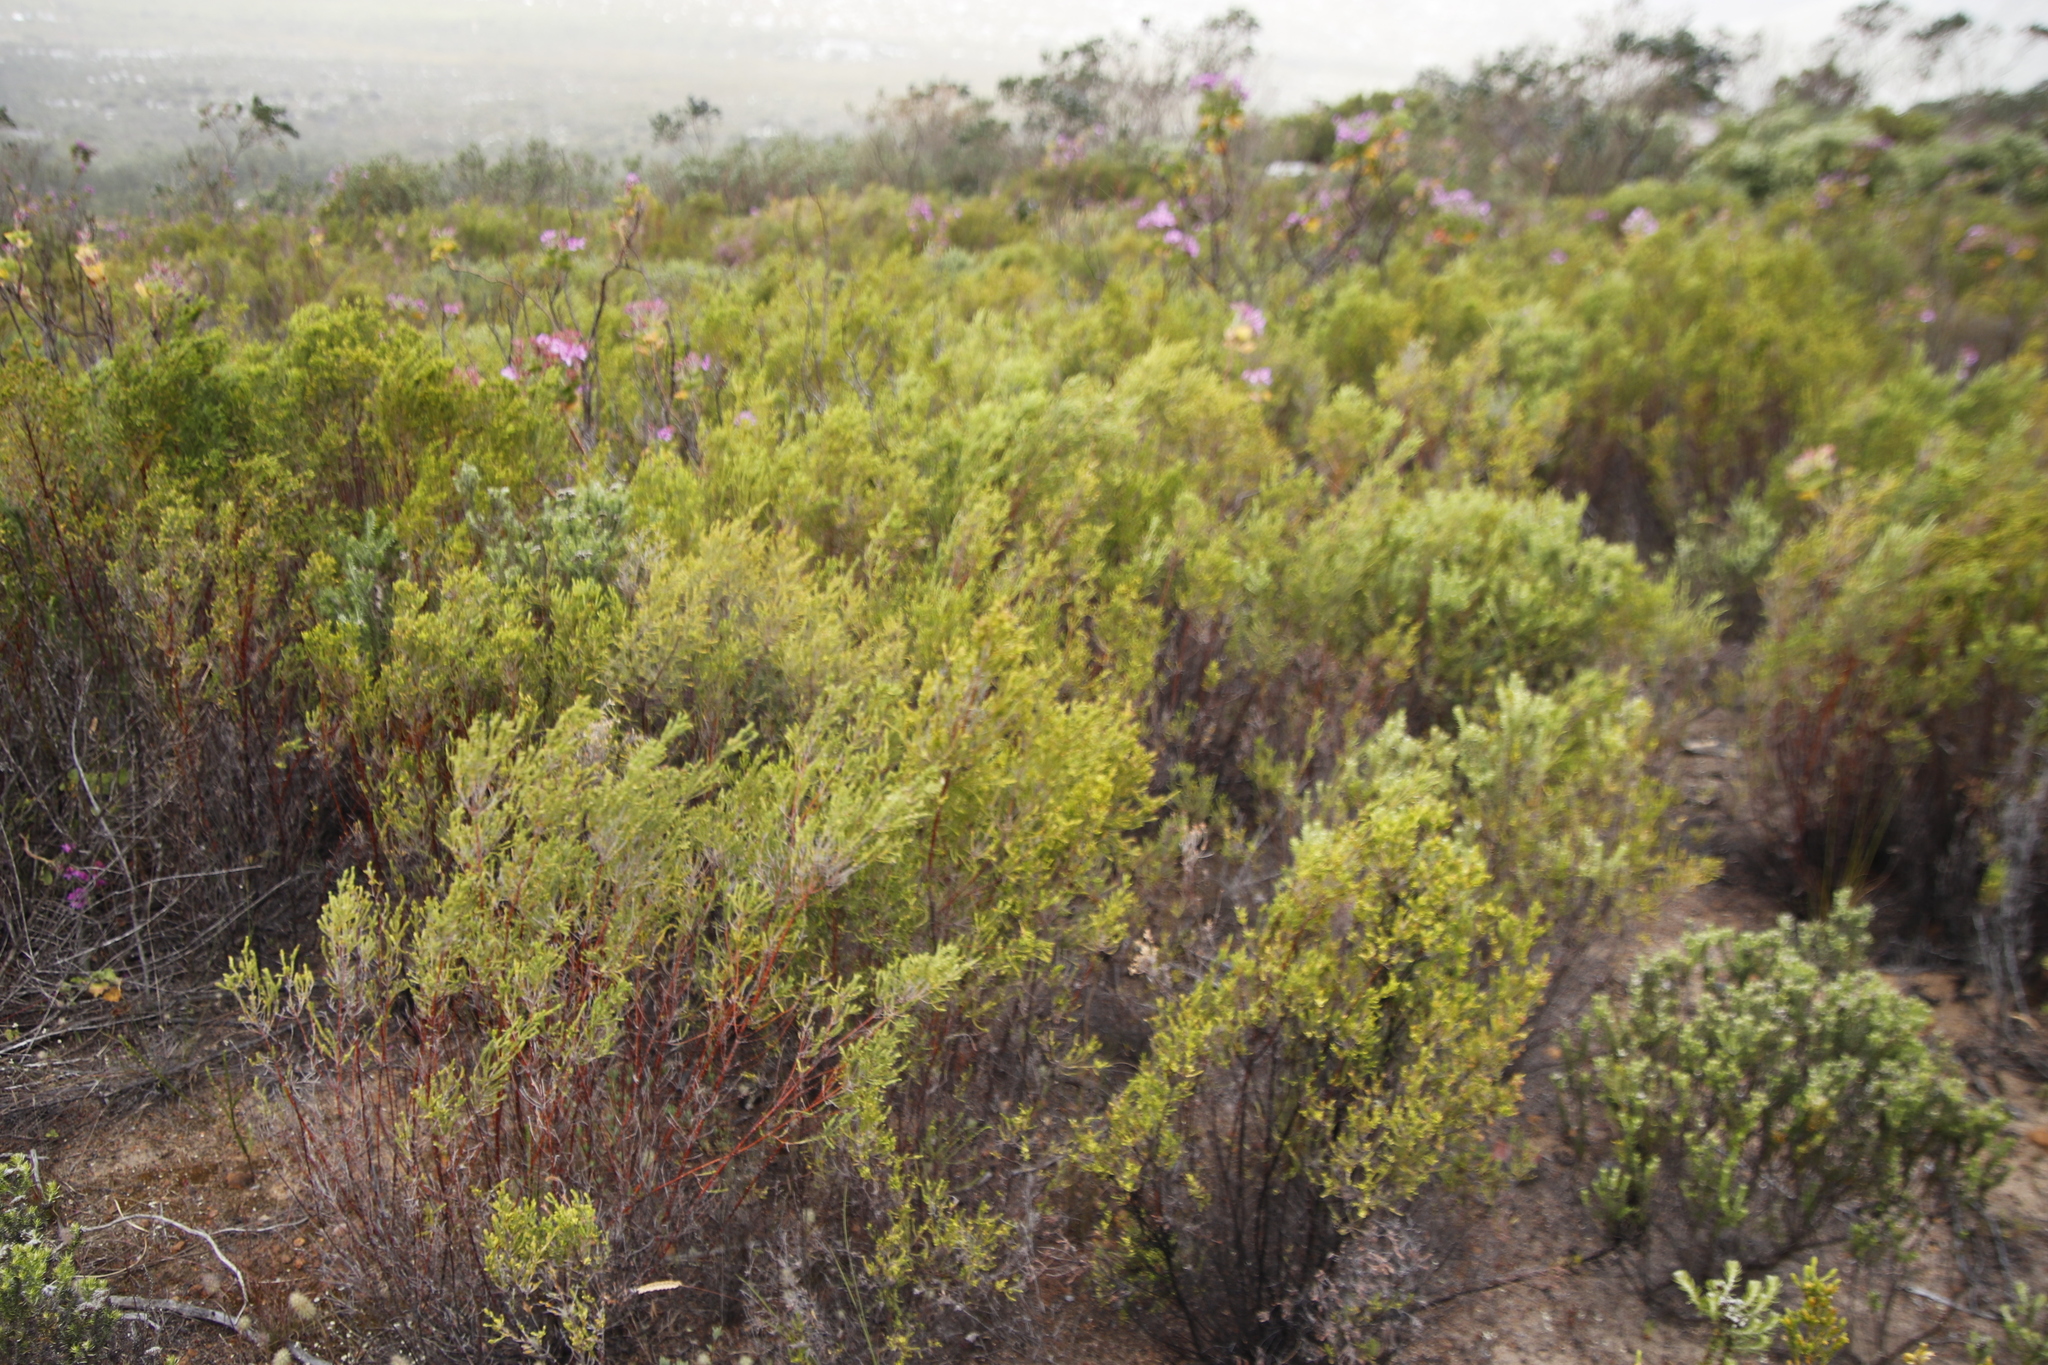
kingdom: Plantae
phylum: Tracheophyta
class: Magnoliopsida
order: Malvales
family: Thymelaeaceae
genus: Passerina
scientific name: Passerina corymbosa
